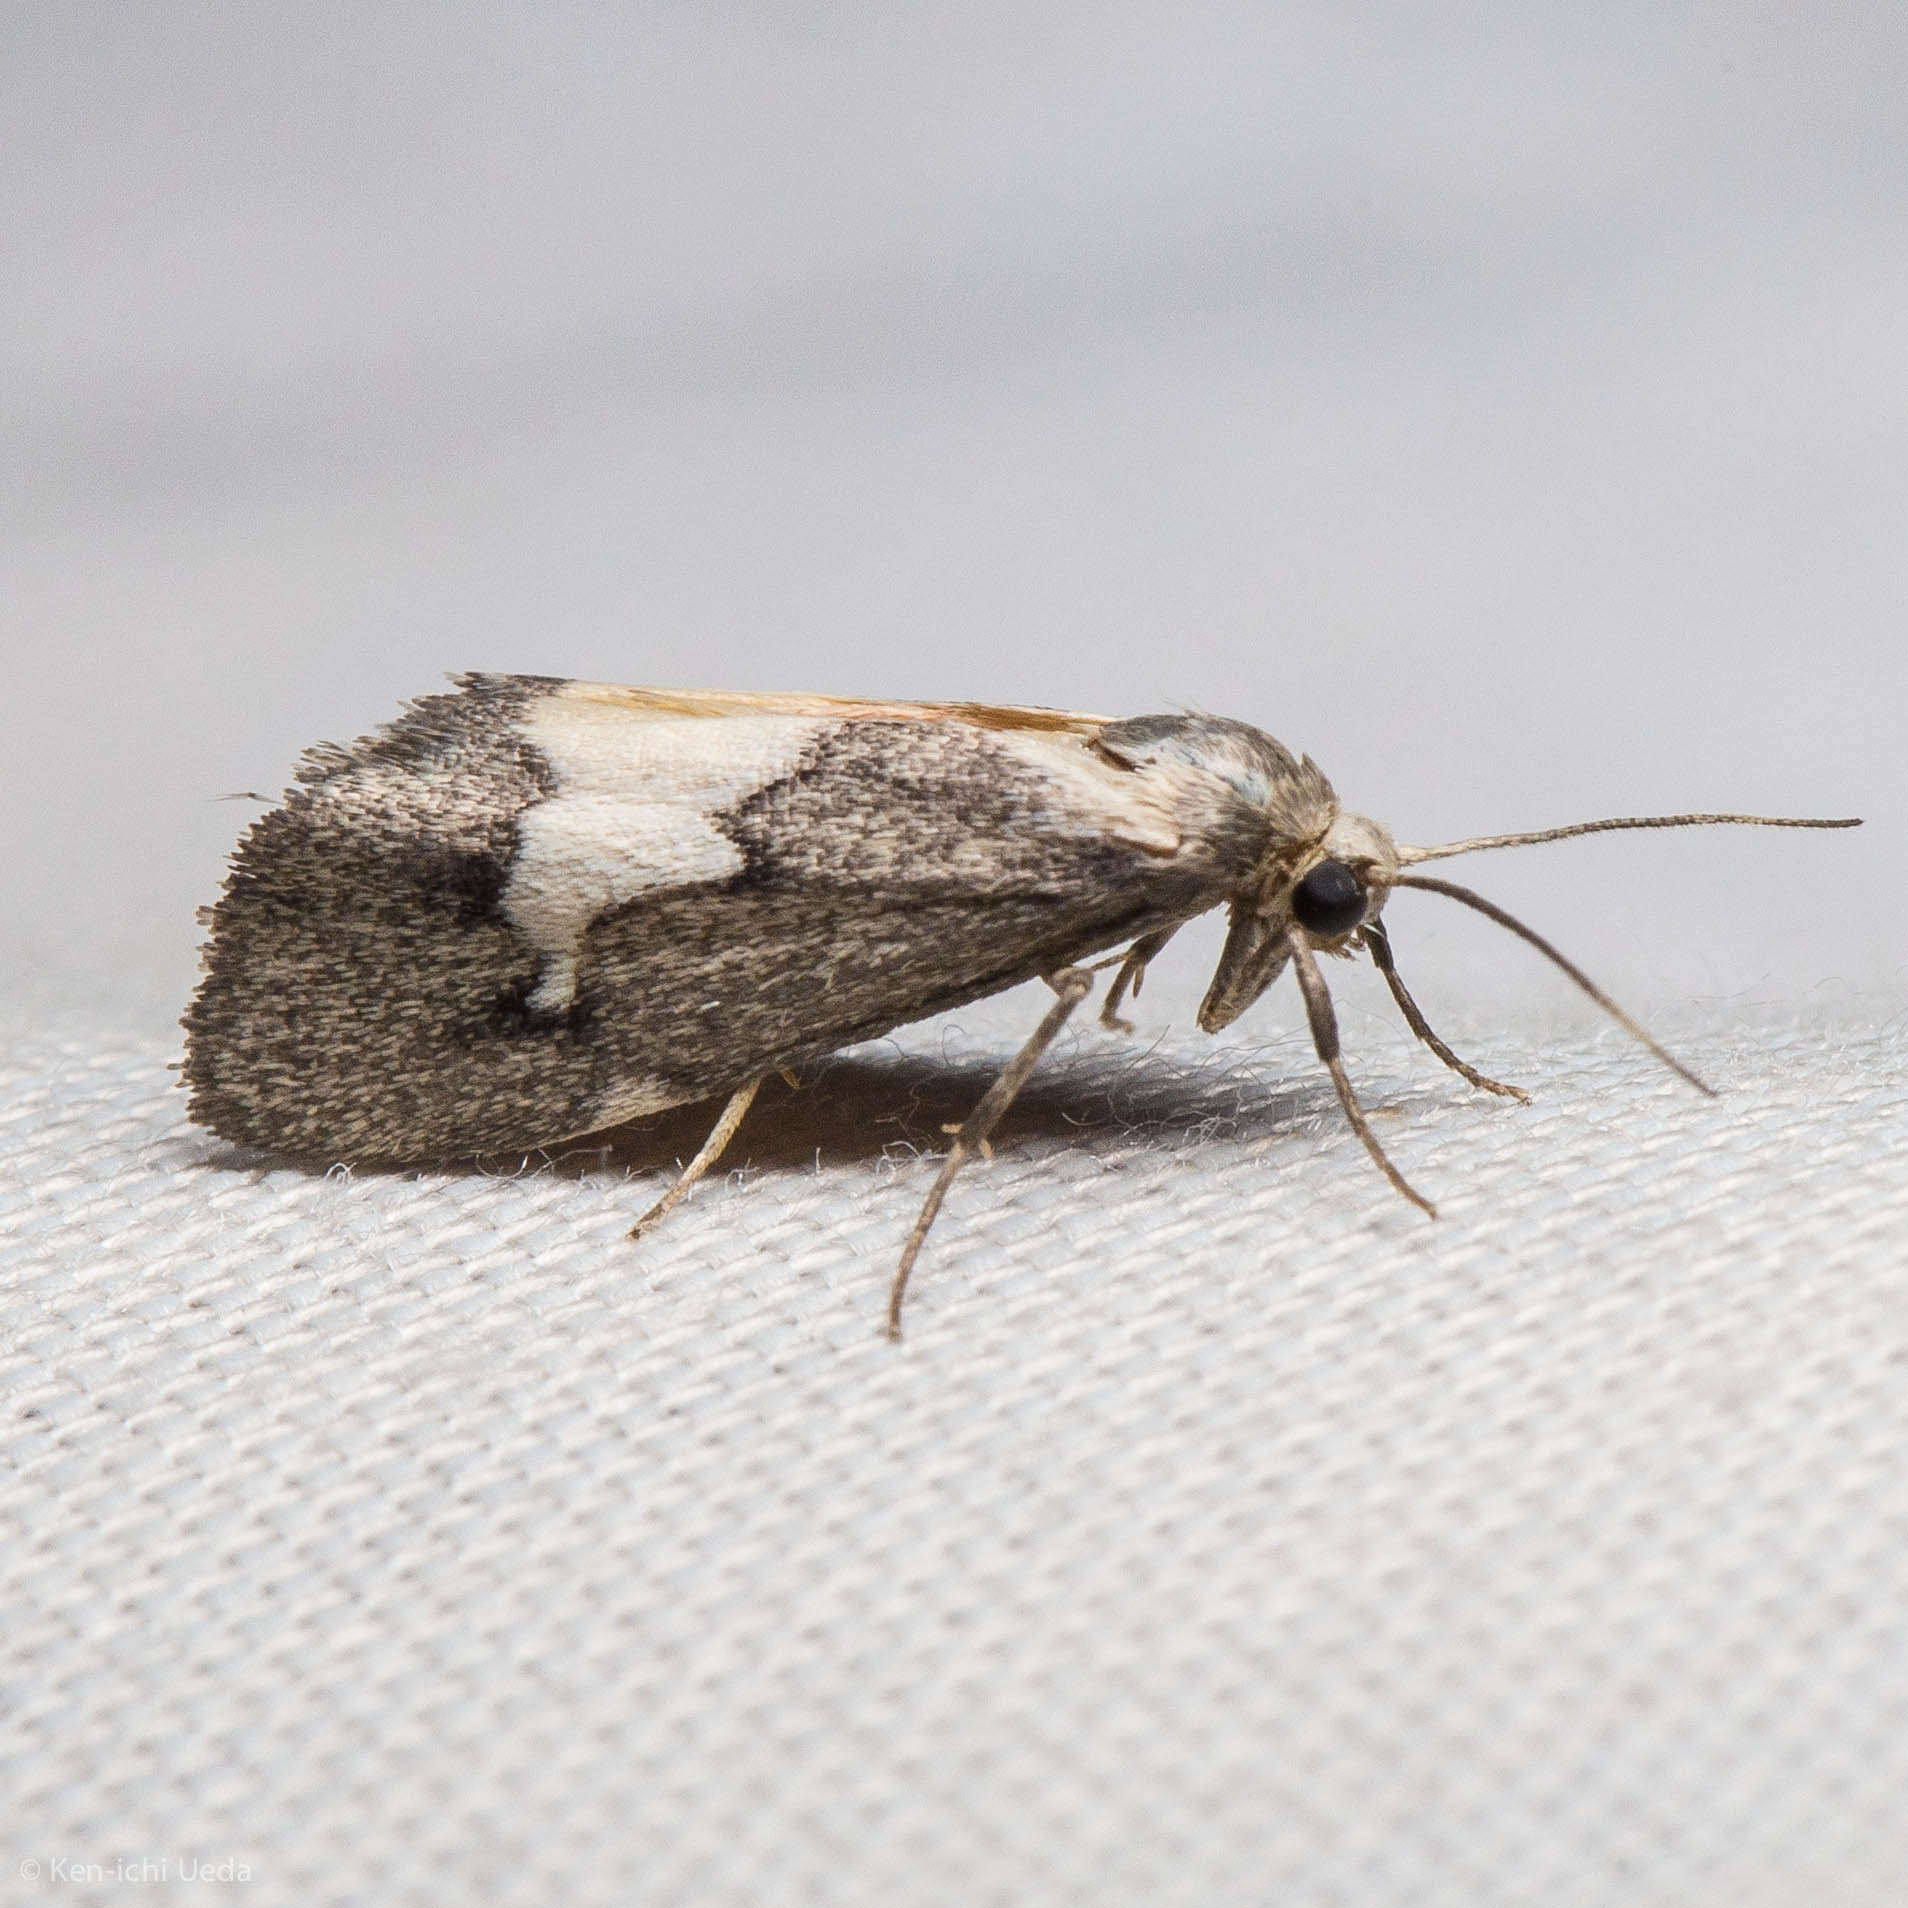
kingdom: Animalia
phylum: Arthropoda
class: Insecta
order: Lepidoptera
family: Erebidae
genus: Cisthene
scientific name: Cisthene deserta
